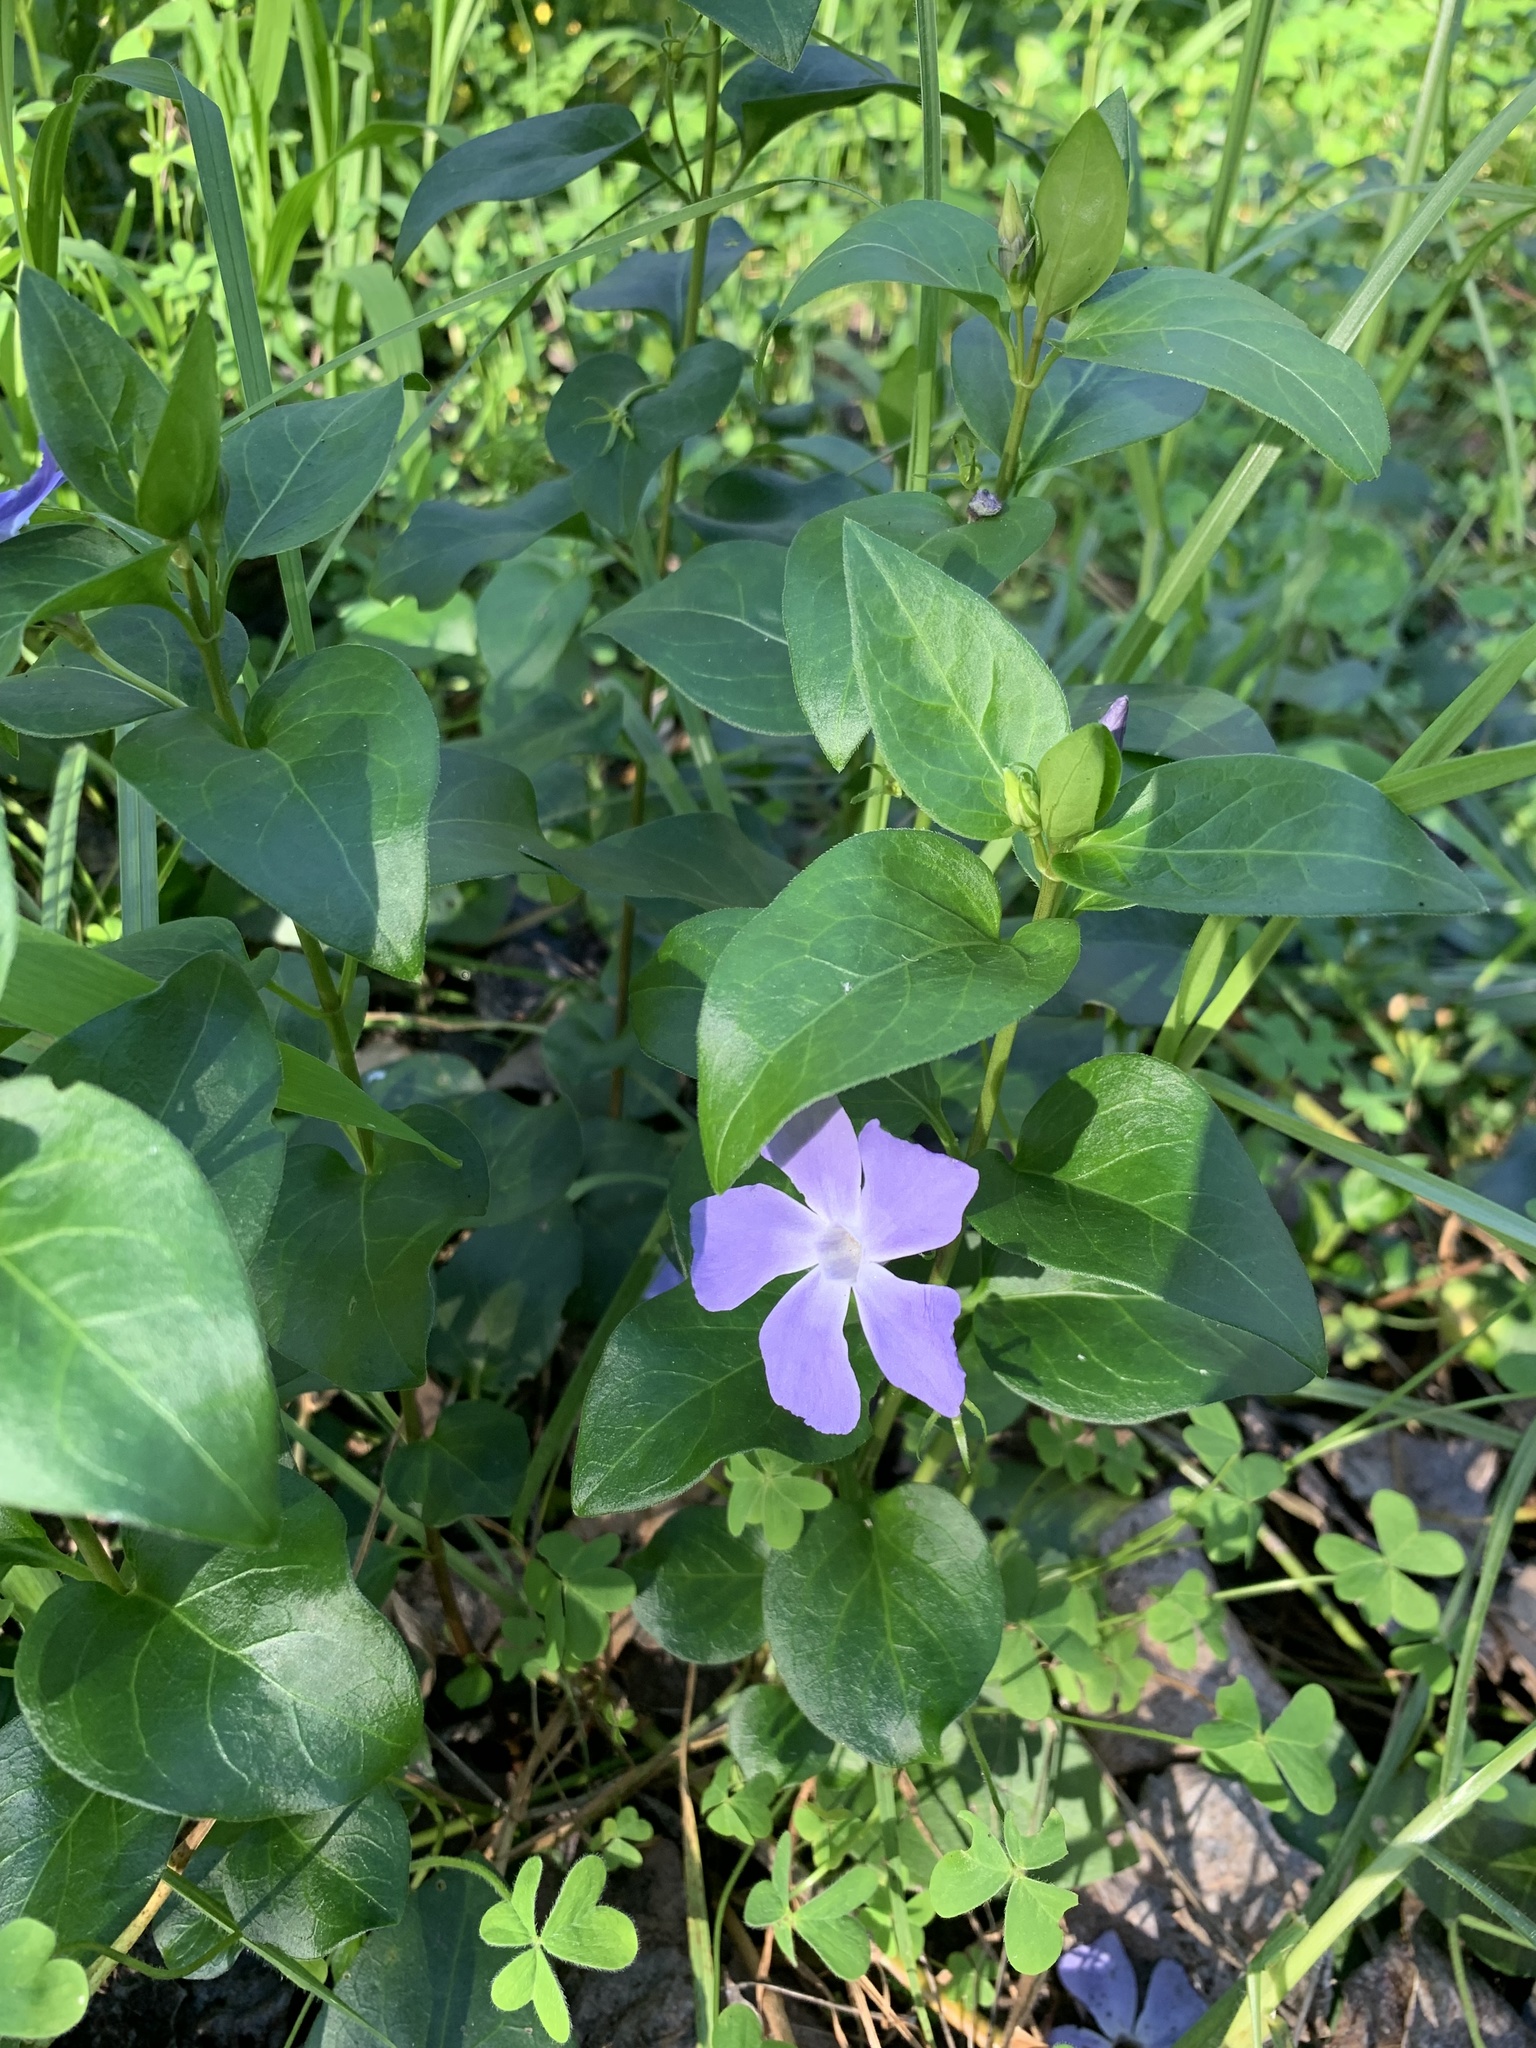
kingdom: Plantae
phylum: Tracheophyta
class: Magnoliopsida
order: Gentianales
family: Apocynaceae
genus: Vinca
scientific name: Vinca major
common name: Greater periwinkle
